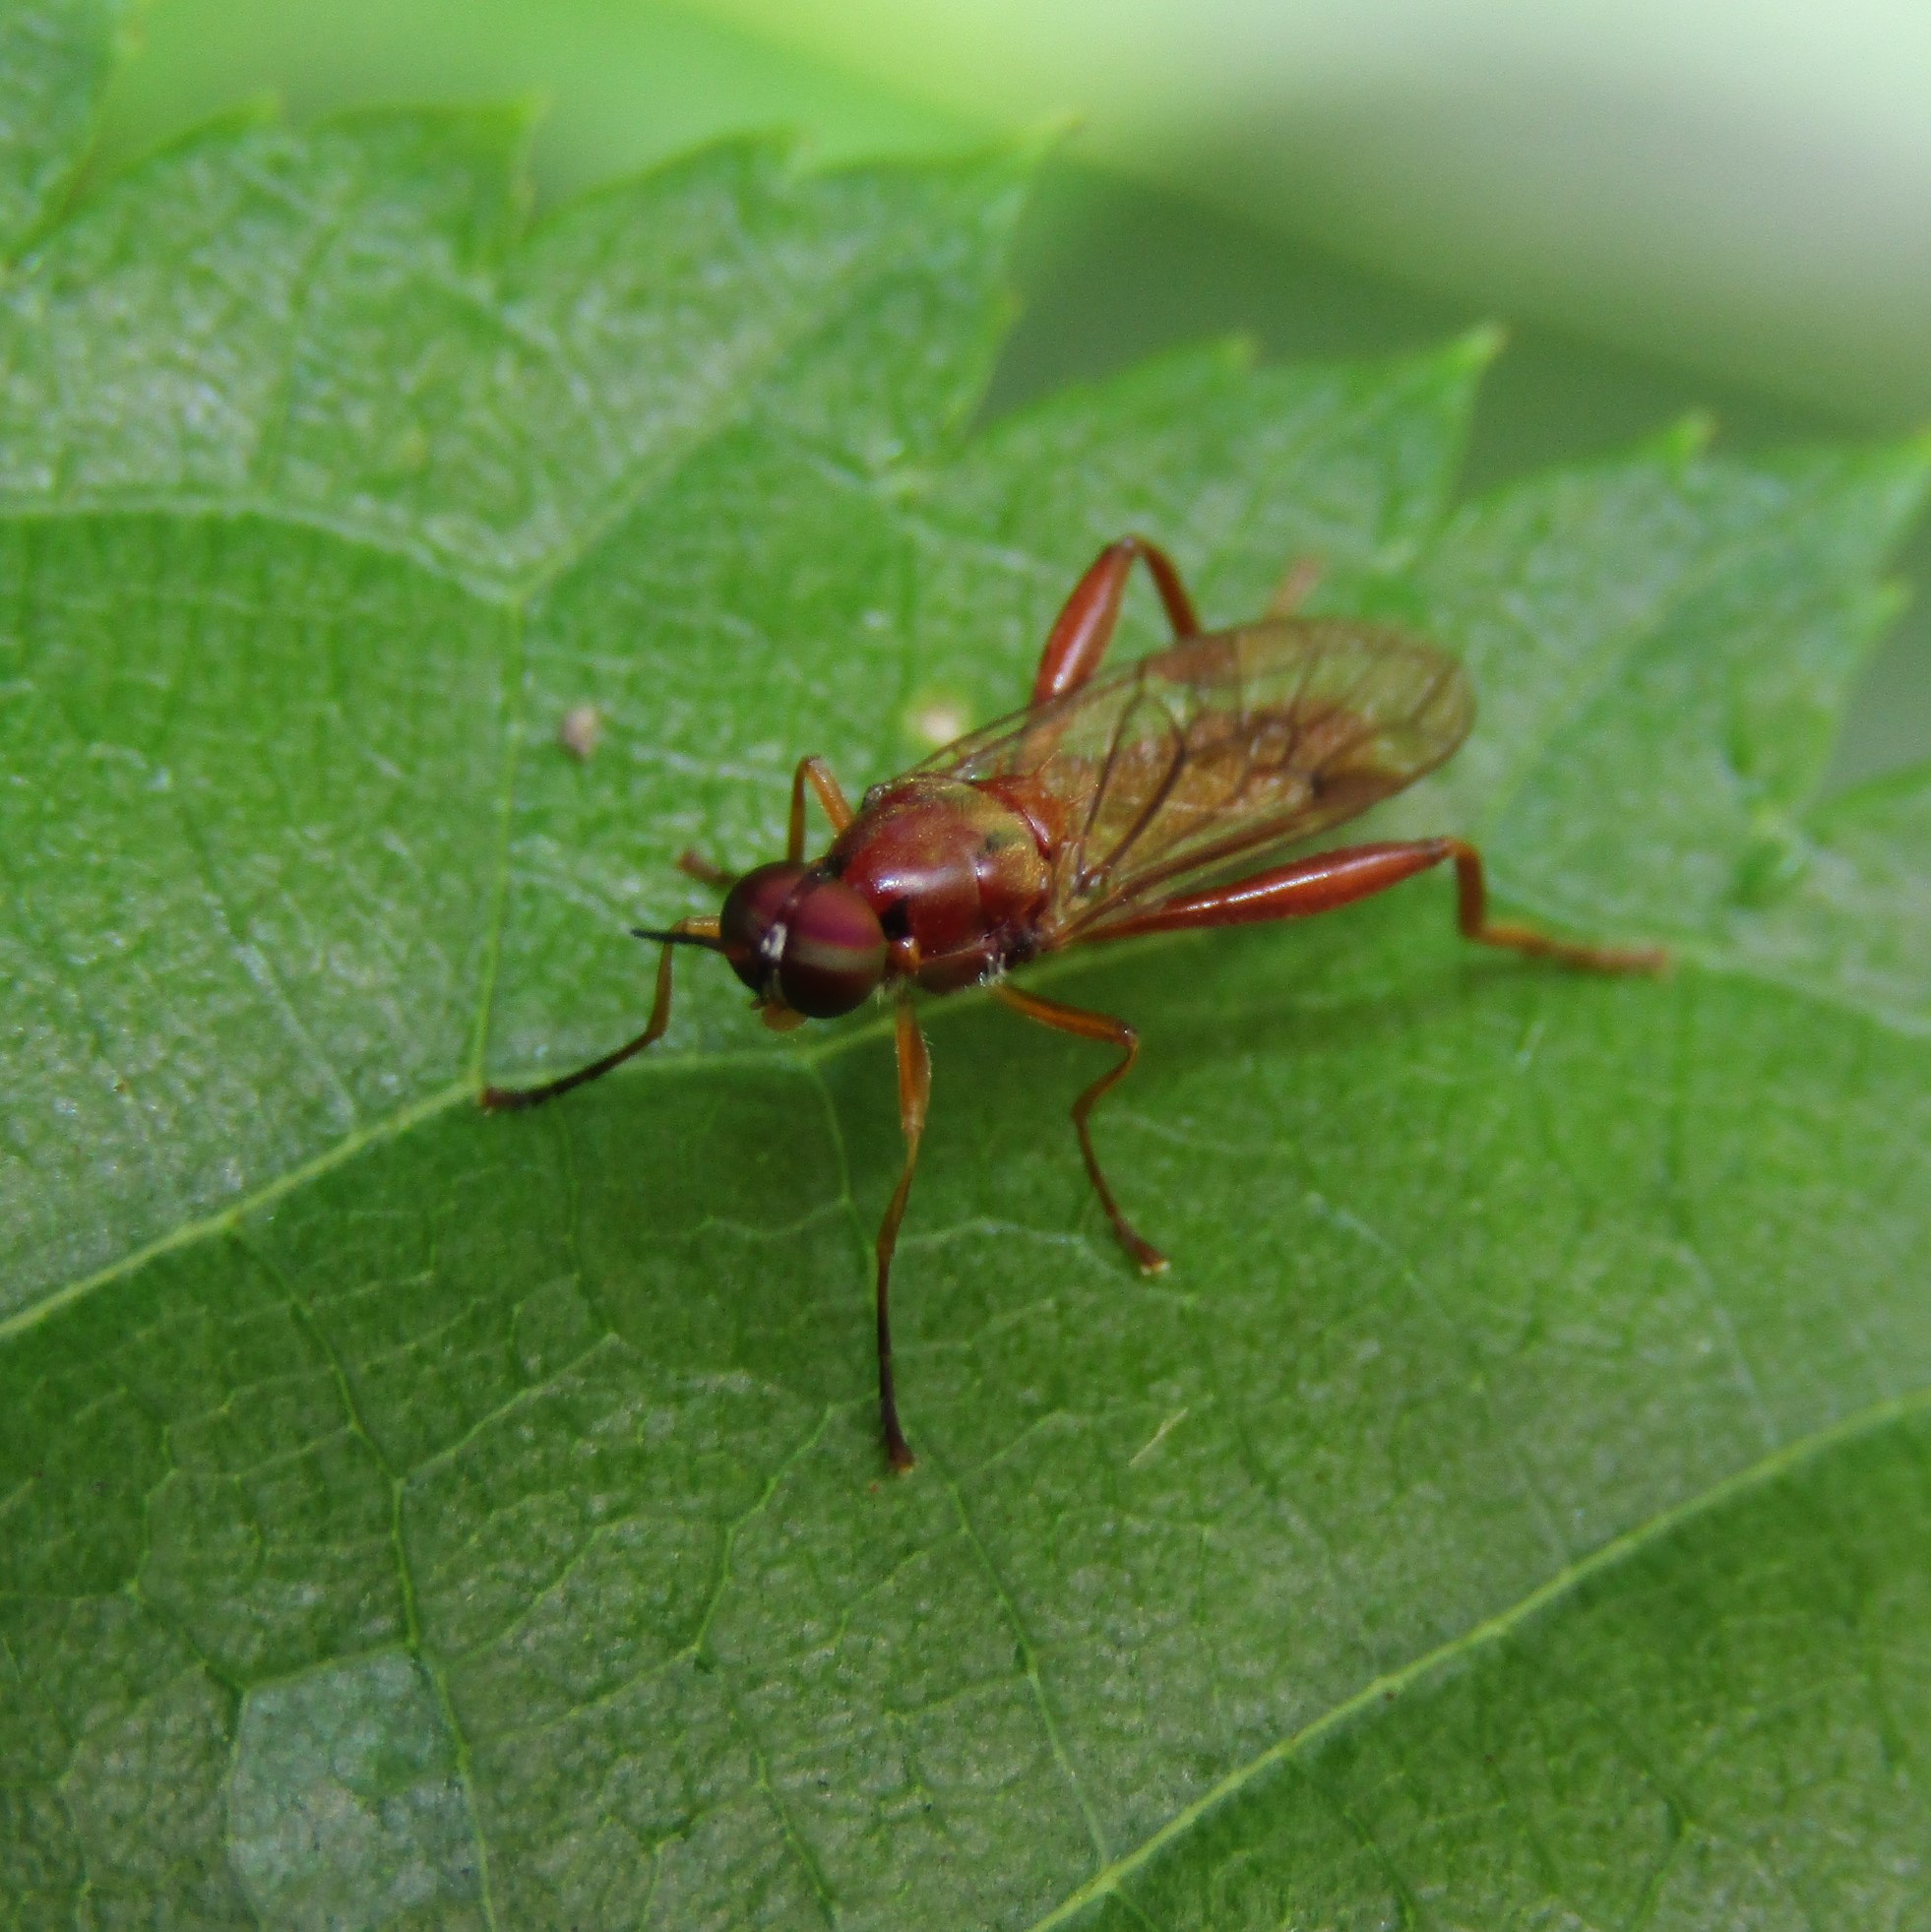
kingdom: Animalia
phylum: Arthropoda
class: Insecta
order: Diptera
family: Stratiomyidae
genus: Benhamyia
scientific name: Benhamyia straznitzkii
